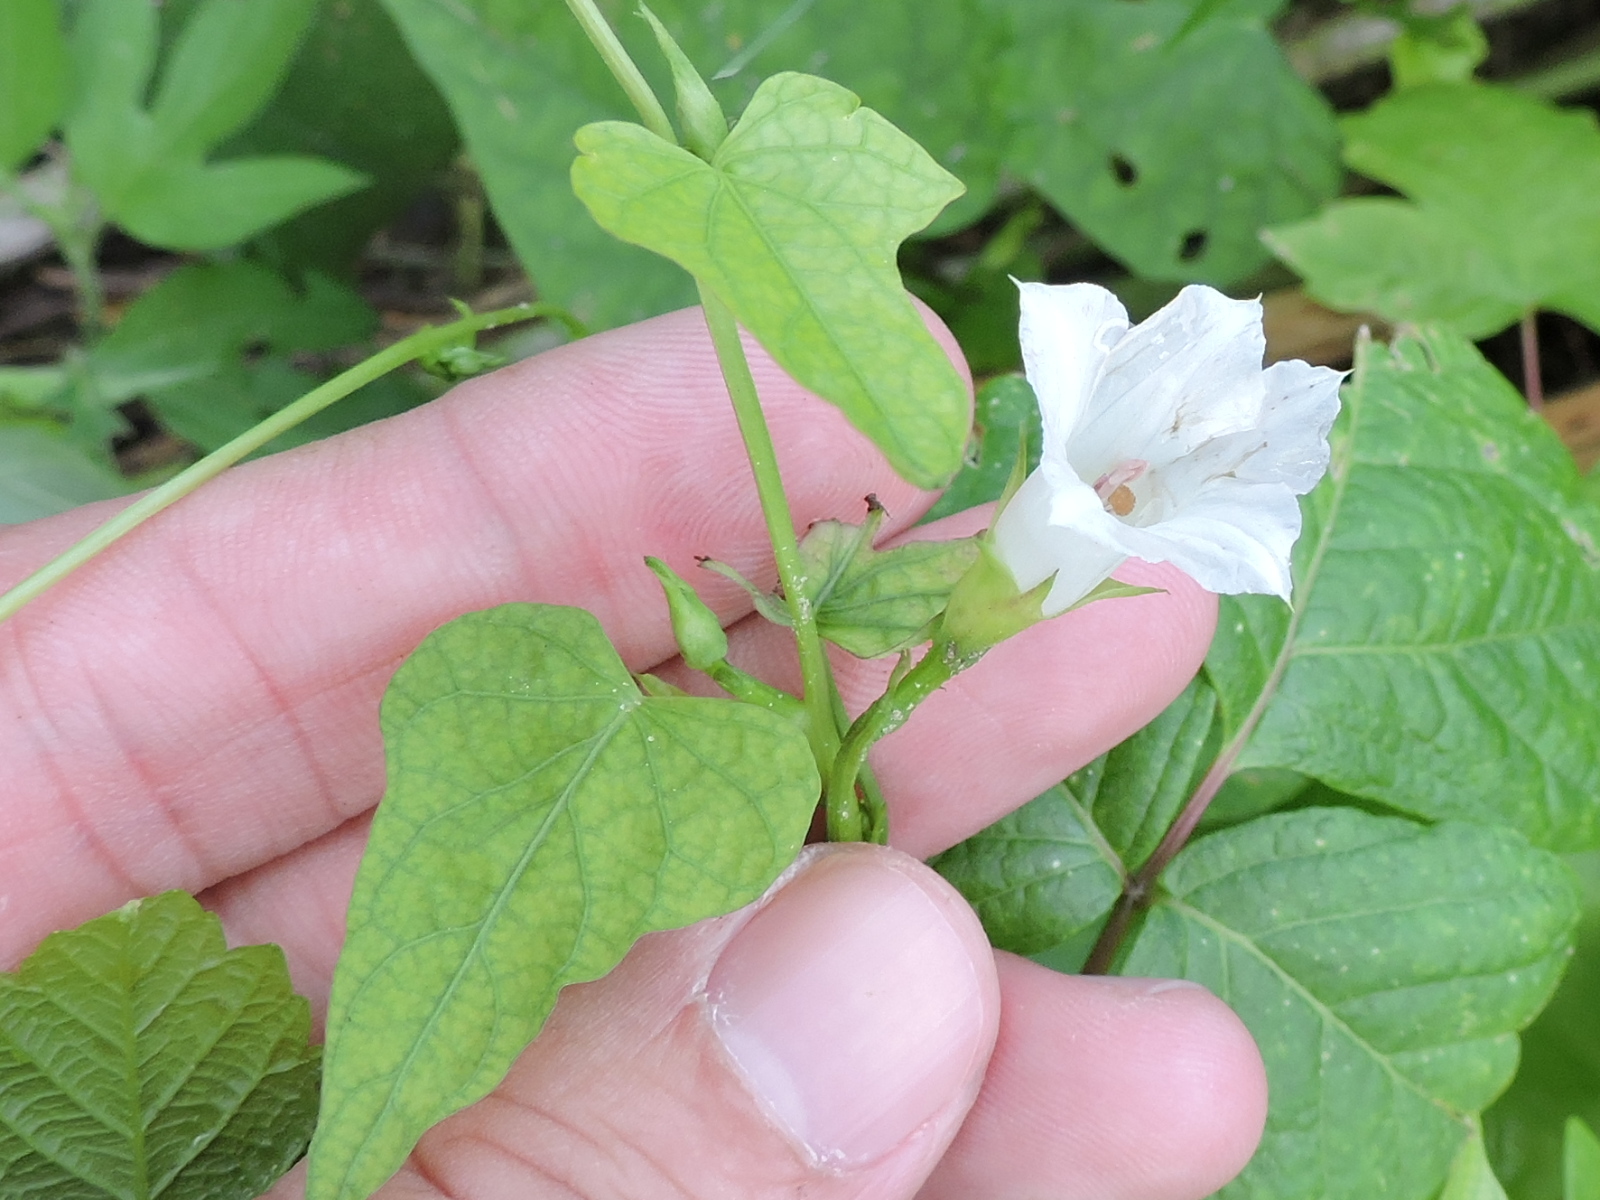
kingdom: Plantae
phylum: Tracheophyta
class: Magnoliopsida
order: Solanales
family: Convolvulaceae
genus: Ipomoea
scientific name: Ipomoea lacunosa
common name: White morning-glory
